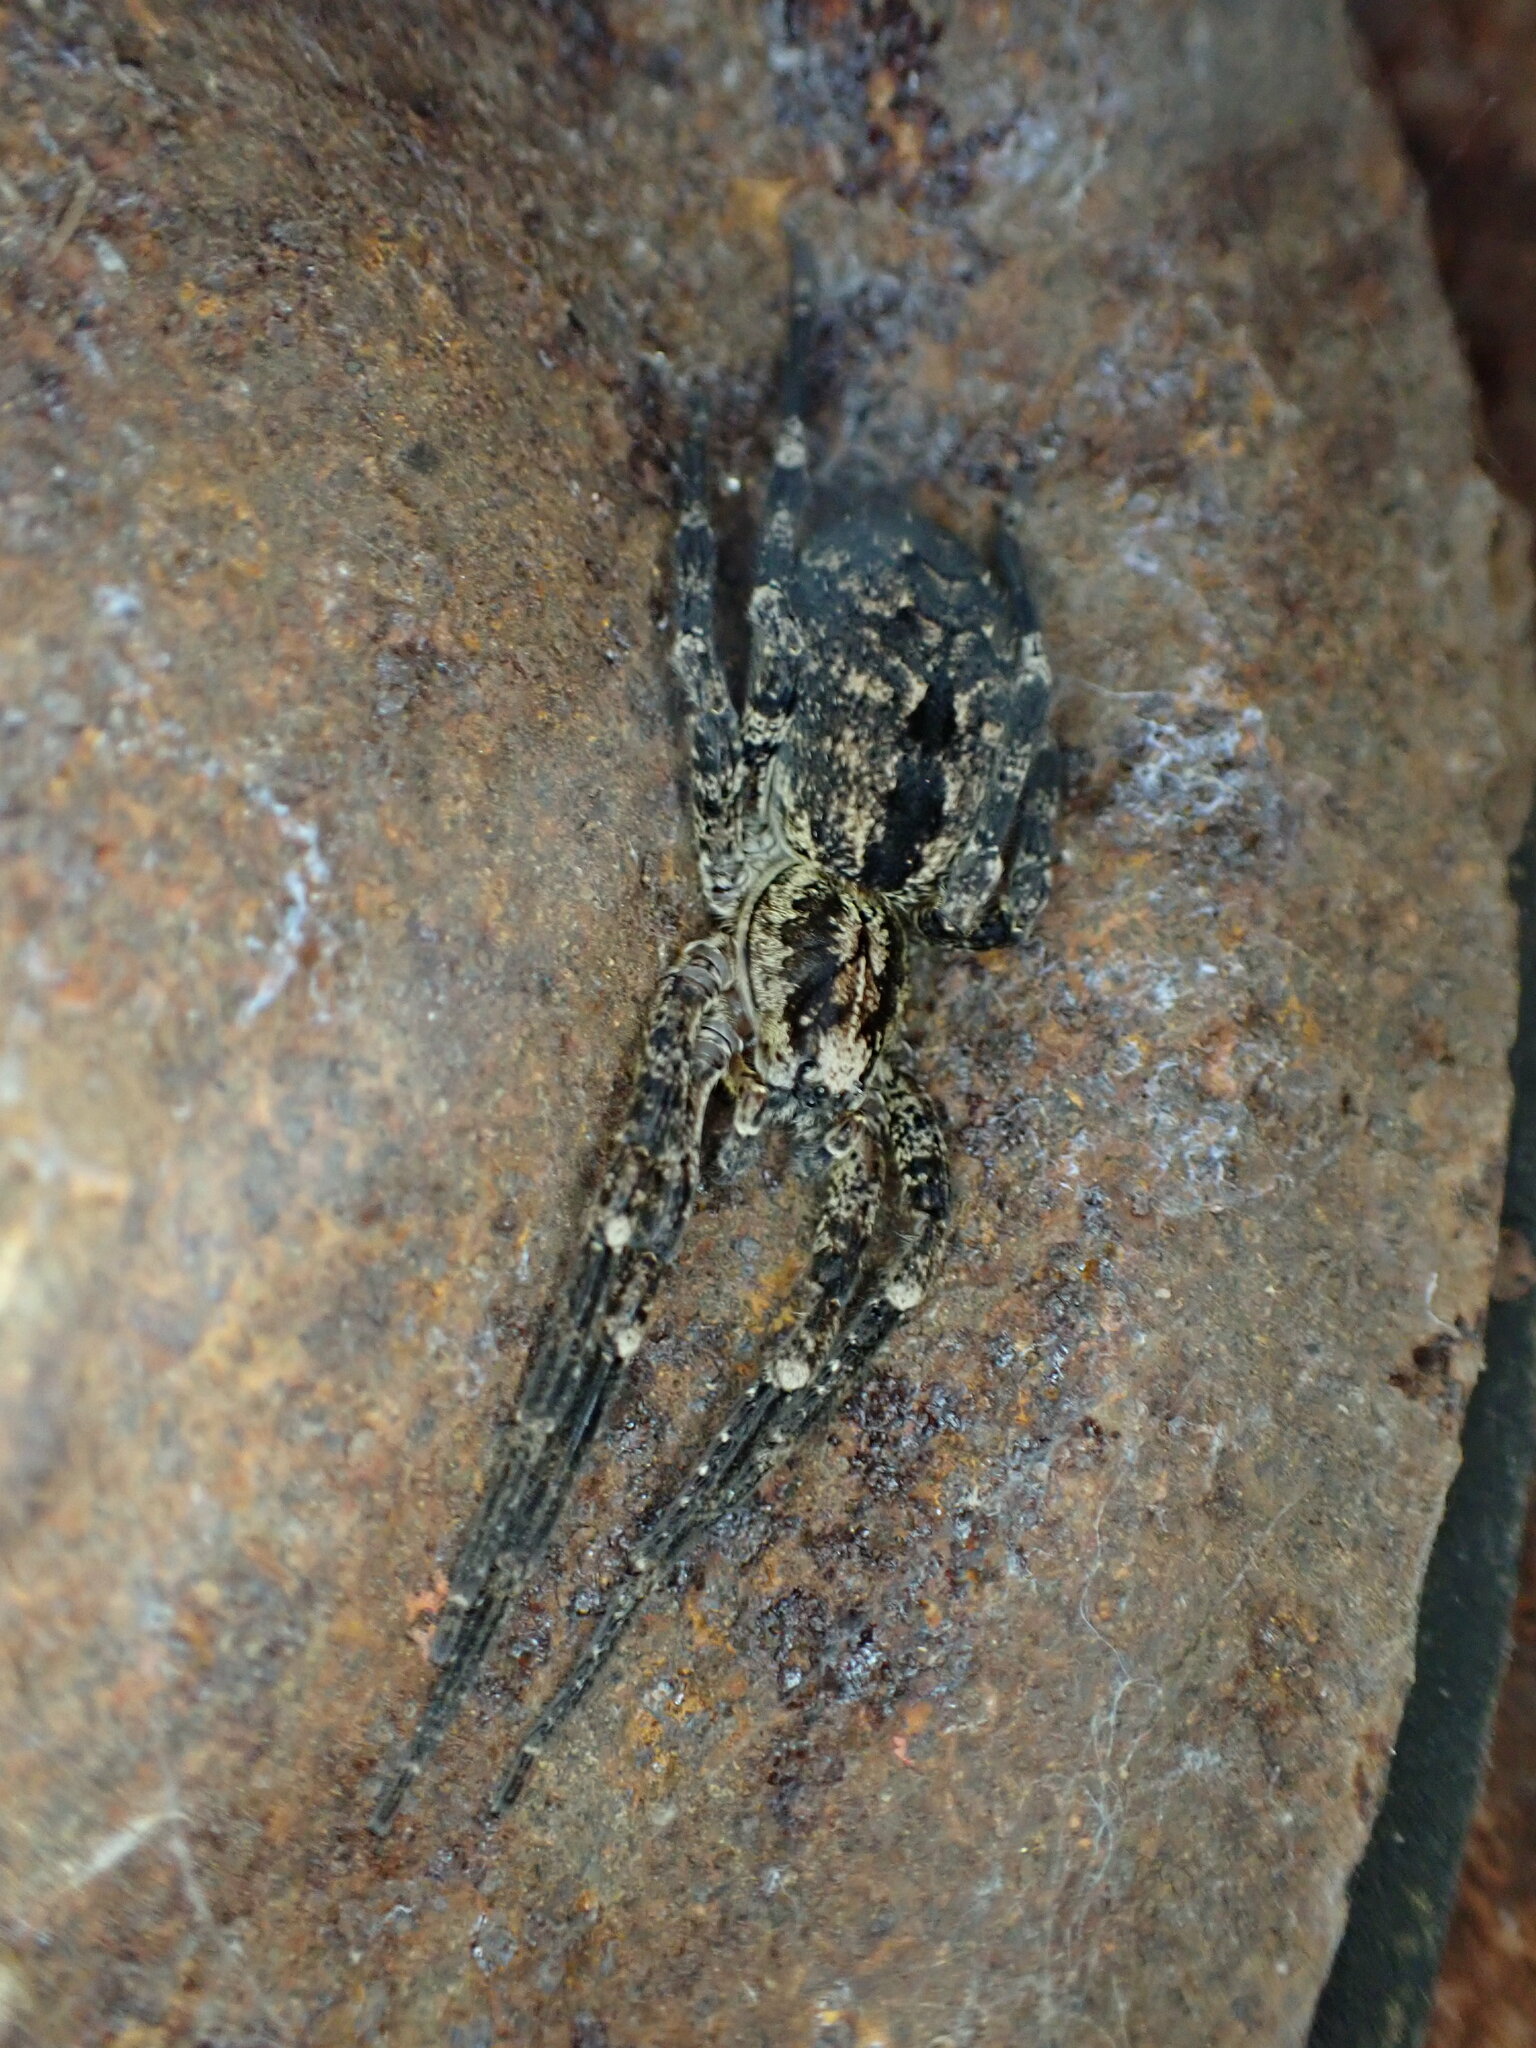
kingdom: Animalia
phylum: Arthropoda
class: Arachnida
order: Araneae
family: Zoropsidae
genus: Zoropsis
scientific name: Zoropsis spinimana
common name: Zoropsid spider
